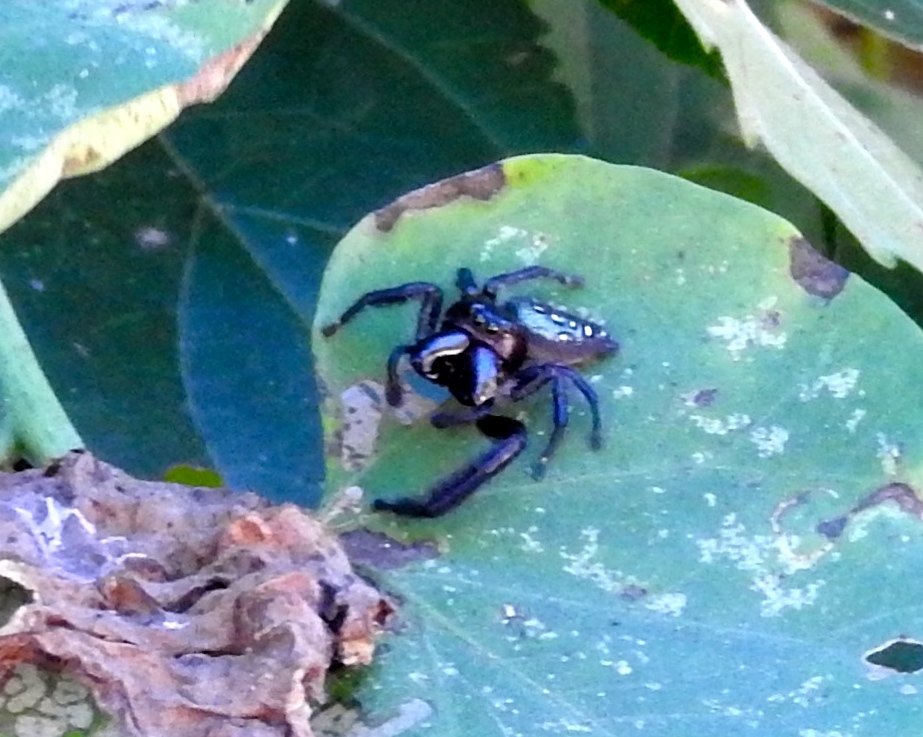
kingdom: Animalia
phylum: Arthropoda
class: Arachnida
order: Araneae
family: Salticidae
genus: Paraphidippus
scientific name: Paraphidippus fartilis
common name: Jumping spiders
